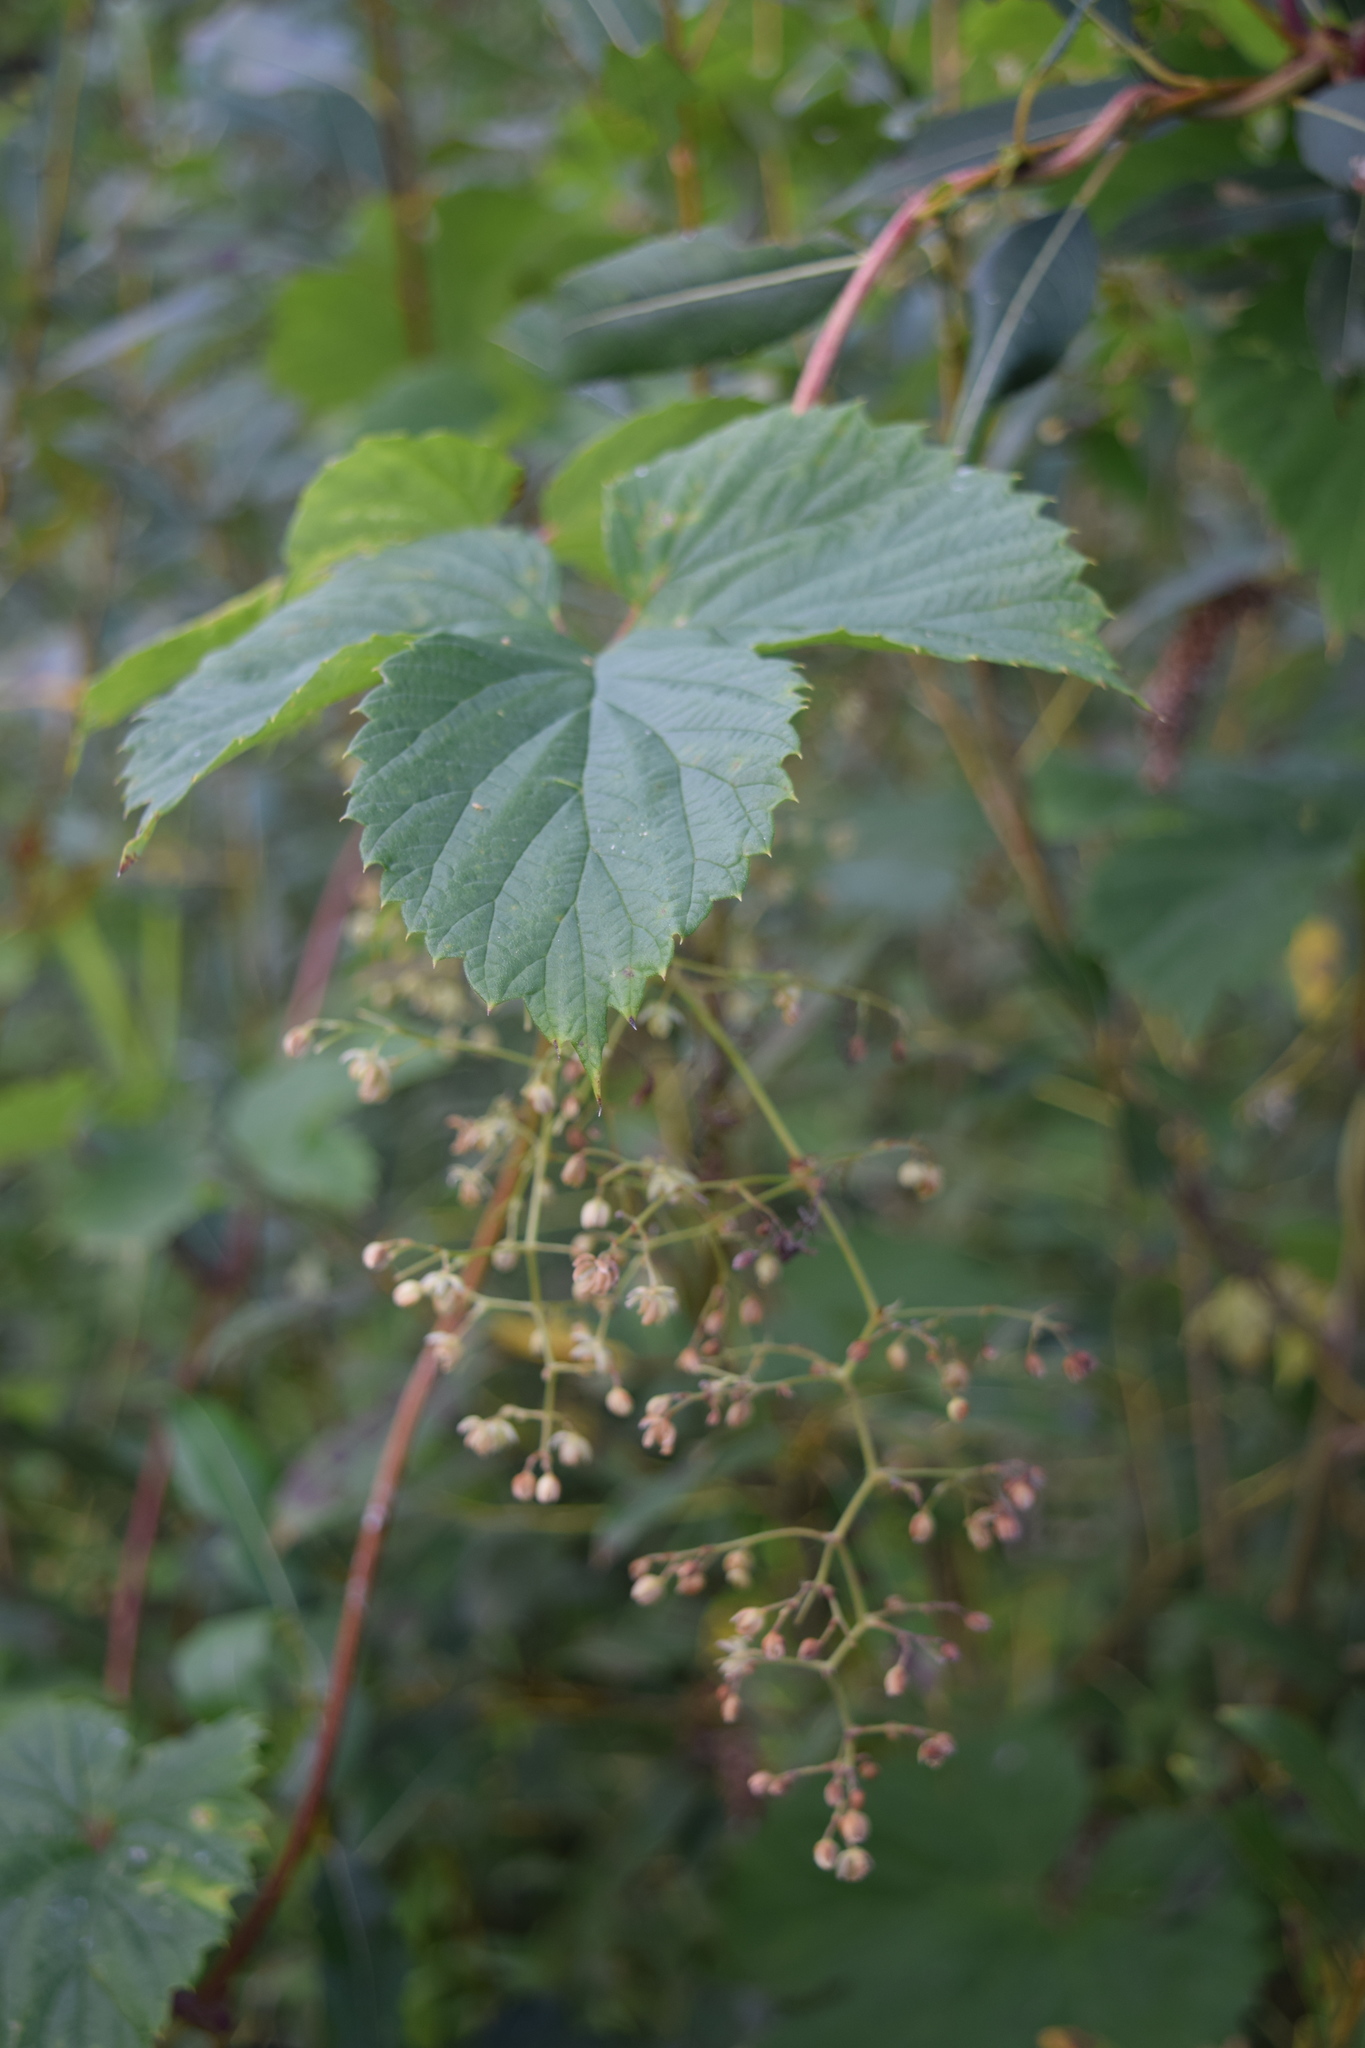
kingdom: Plantae
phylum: Tracheophyta
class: Magnoliopsida
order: Rosales
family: Cannabaceae
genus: Humulus
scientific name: Humulus lupulus
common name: Hop
